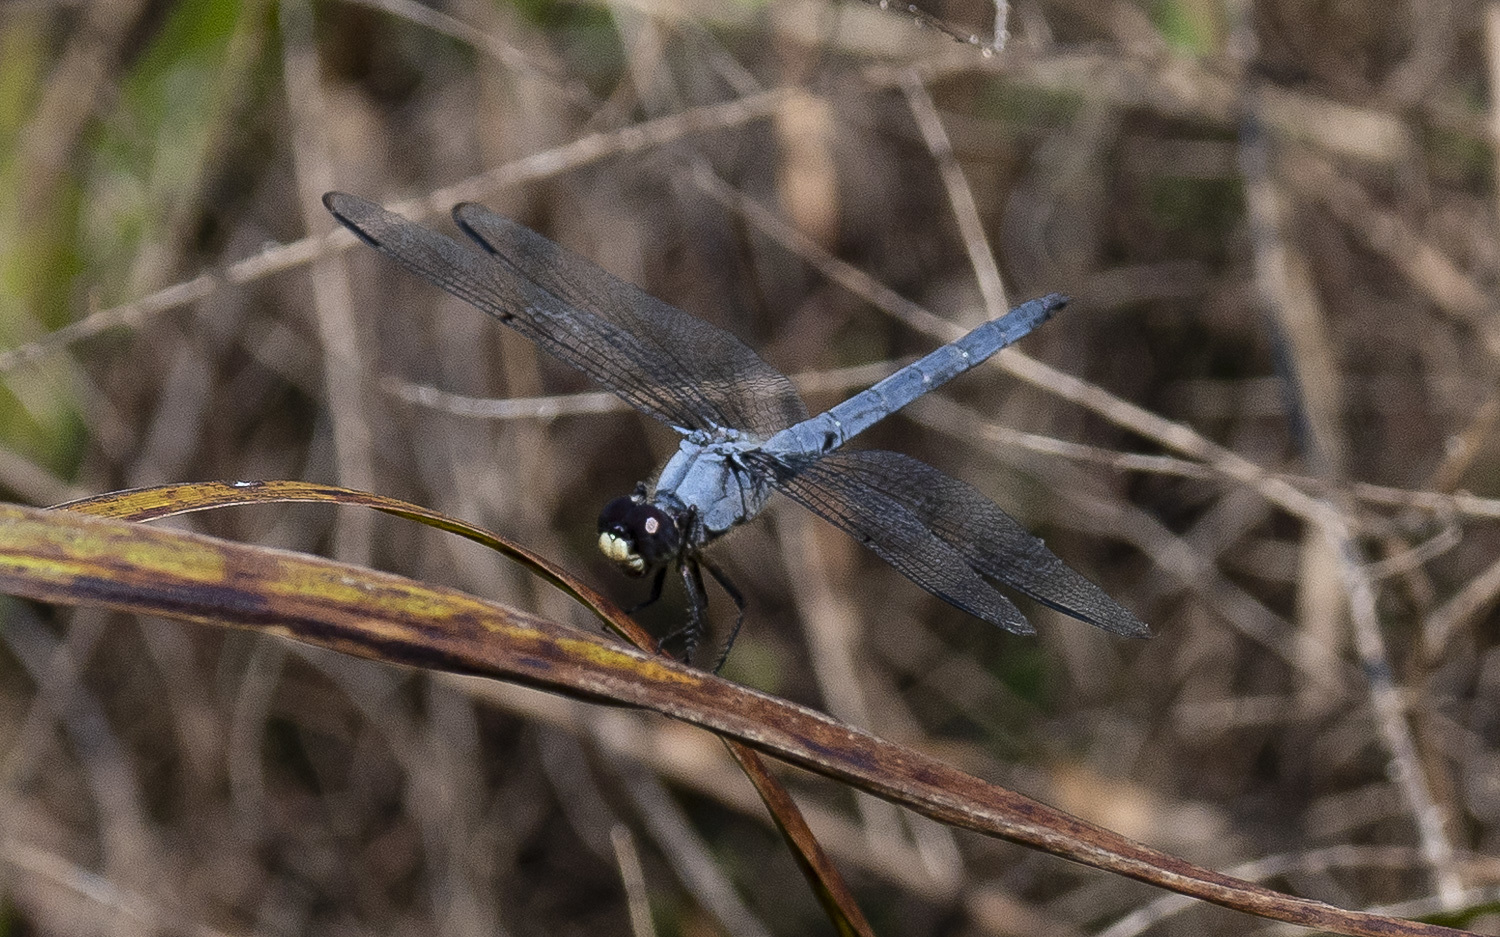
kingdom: Animalia
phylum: Arthropoda
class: Insecta
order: Odonata
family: Libellulidae
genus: Libellula
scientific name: Libellula vibrans
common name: Great blue skimmer
